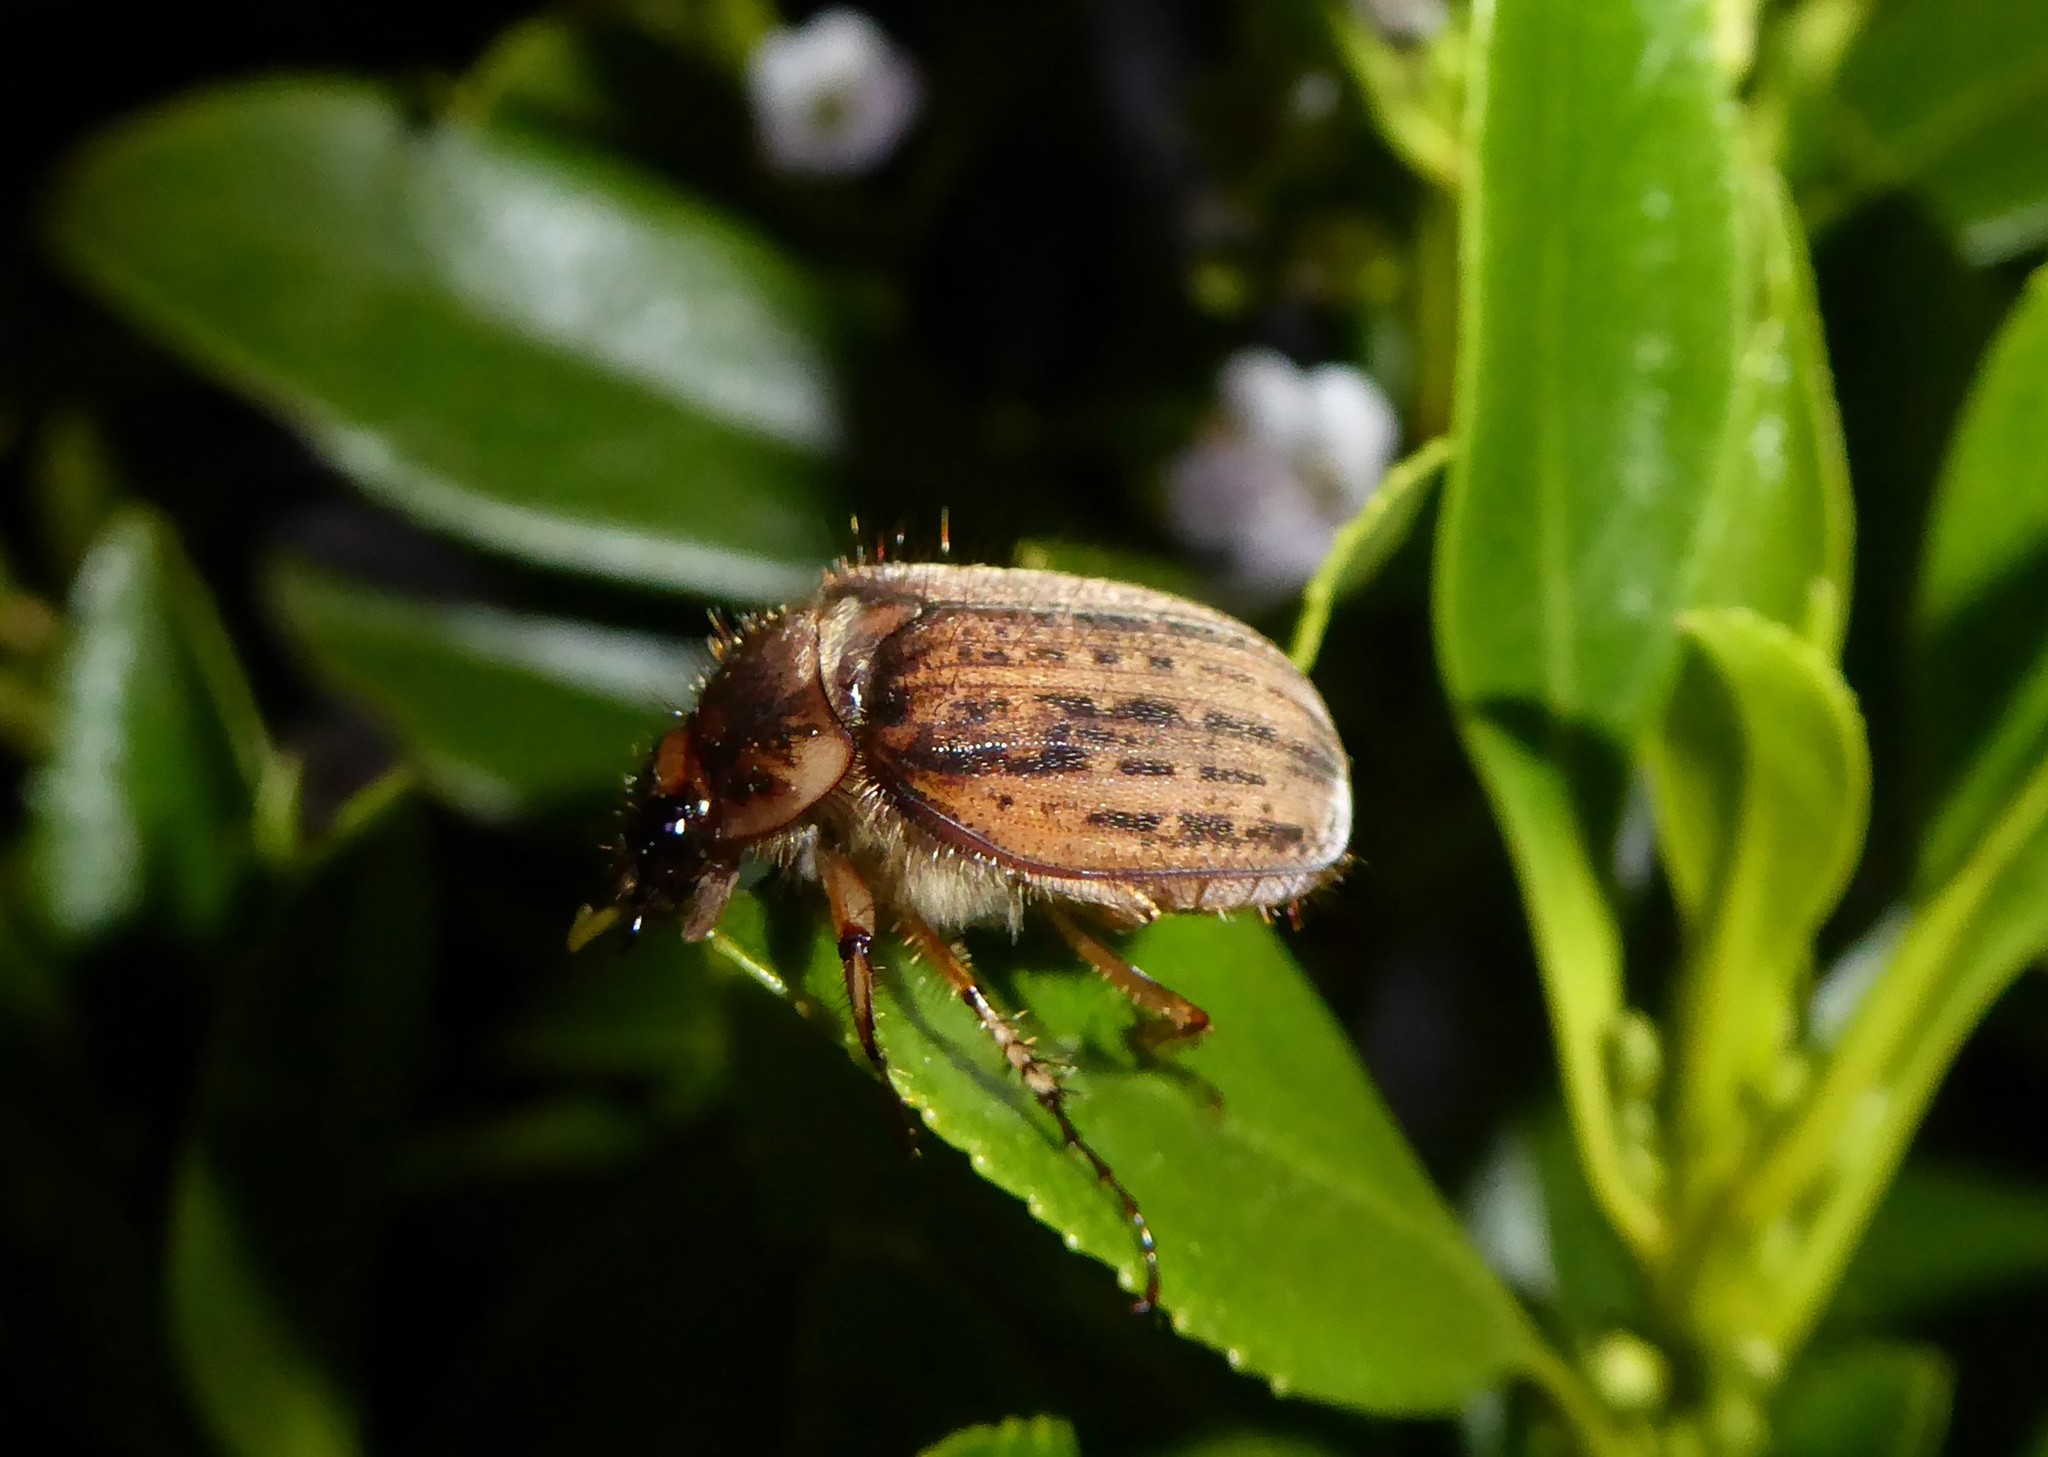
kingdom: Animalia
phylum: Arthropoda
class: Insecta
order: Coleoptera
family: Scarabaeidae
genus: Odontria
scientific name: Odontria striata
